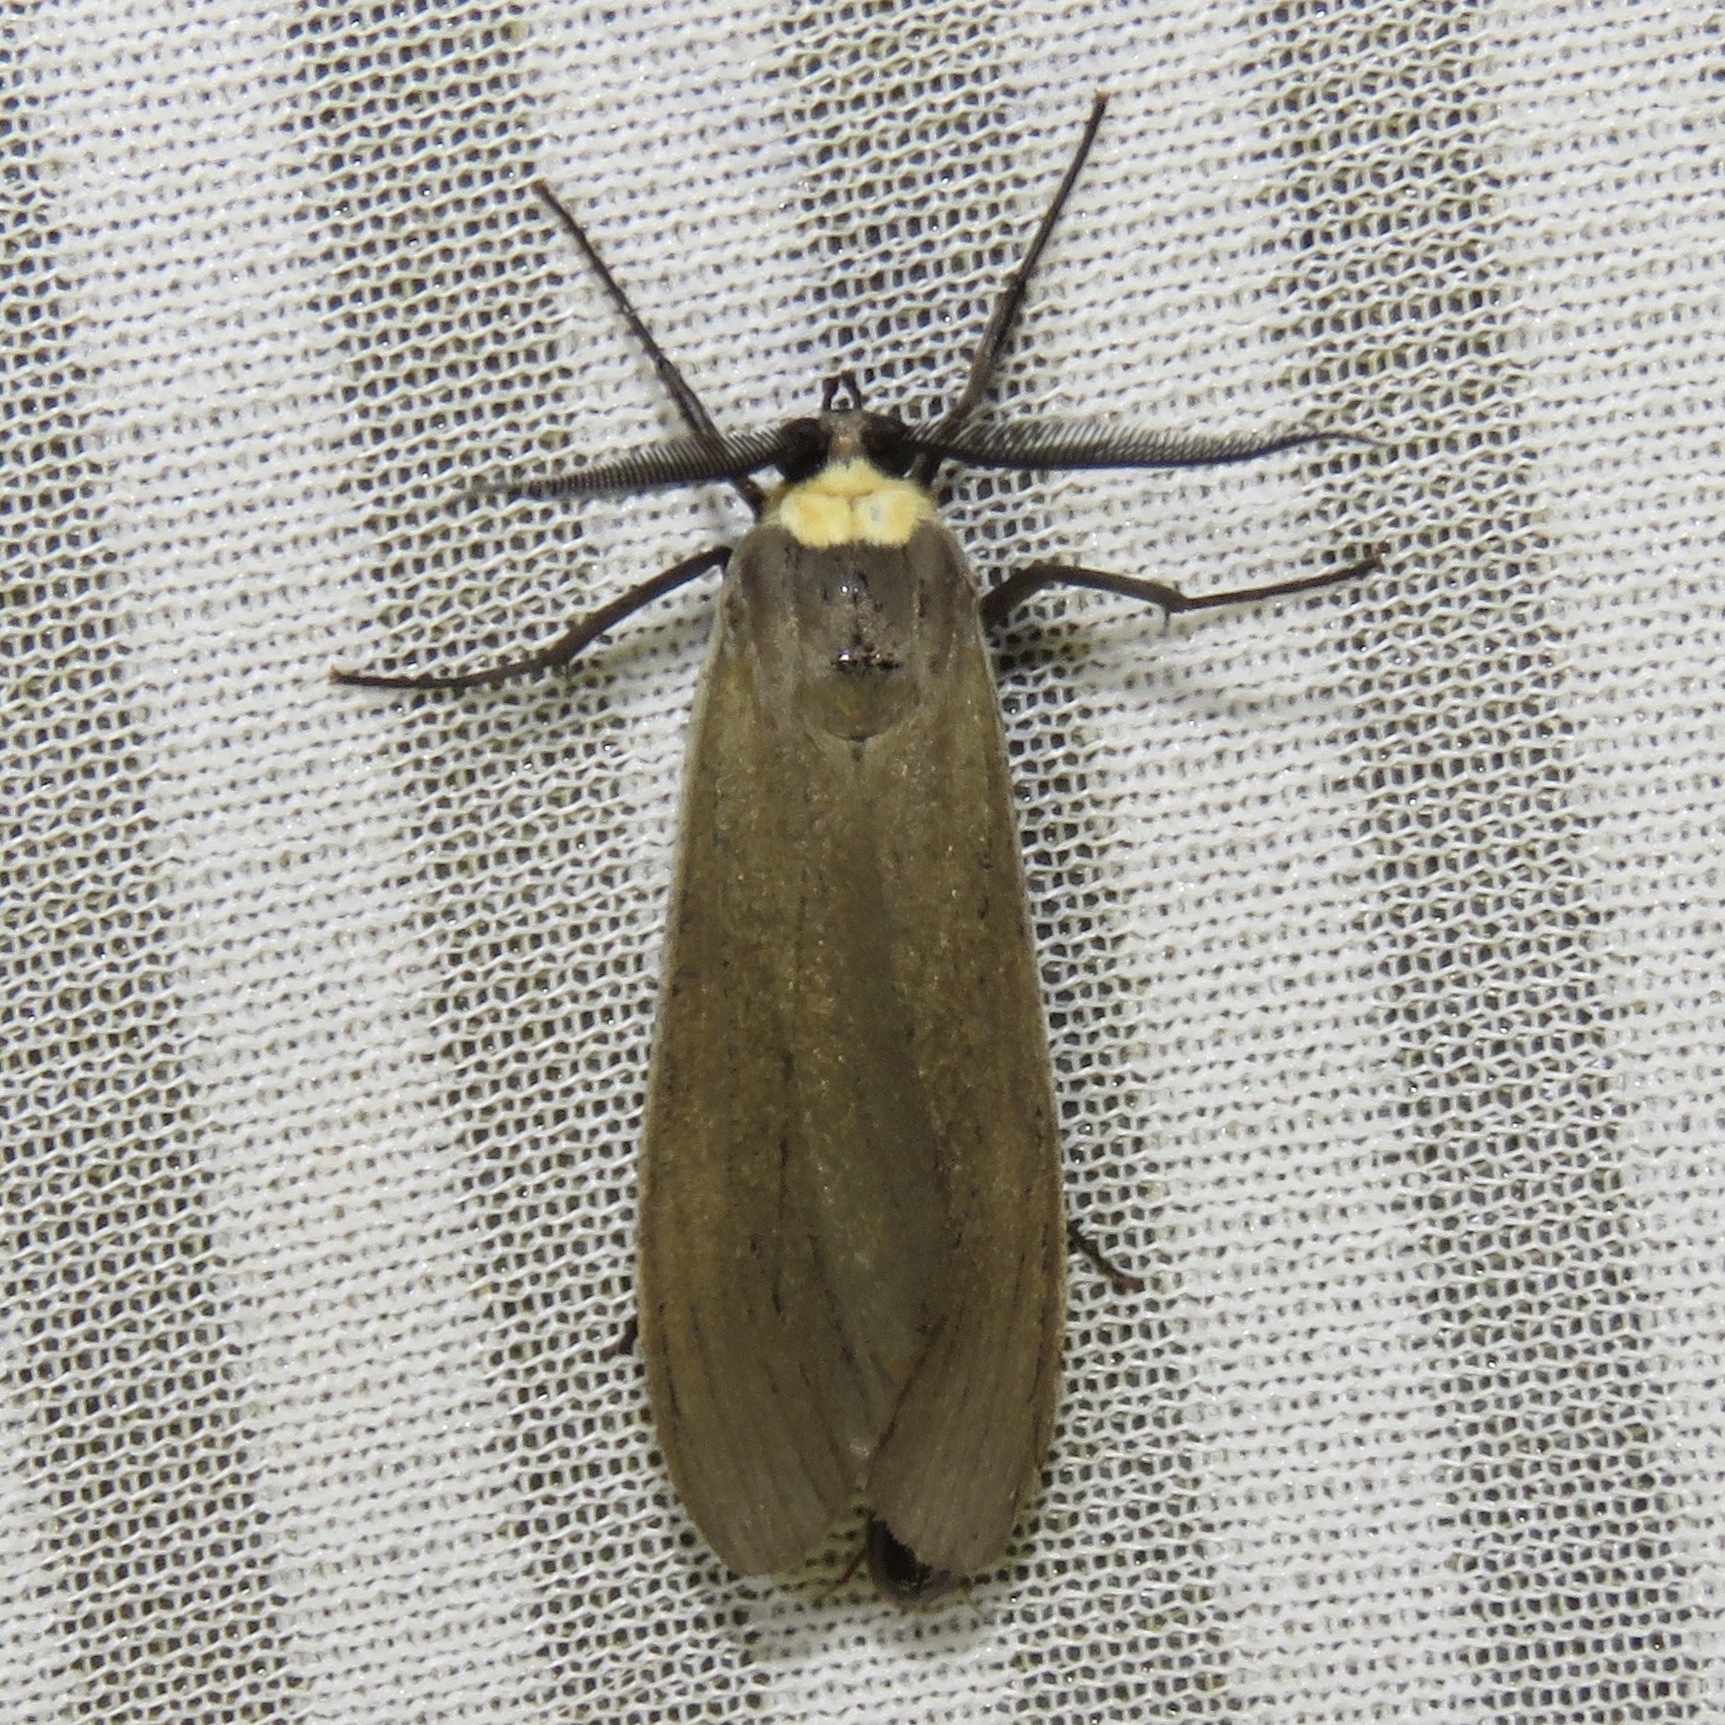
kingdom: Animalia
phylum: Arthropoda
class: Insecta
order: Lepidoptera
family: Erebidae
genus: Cisseps
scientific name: Cisseps fulvicollis
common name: Yellow-collared scape moth
